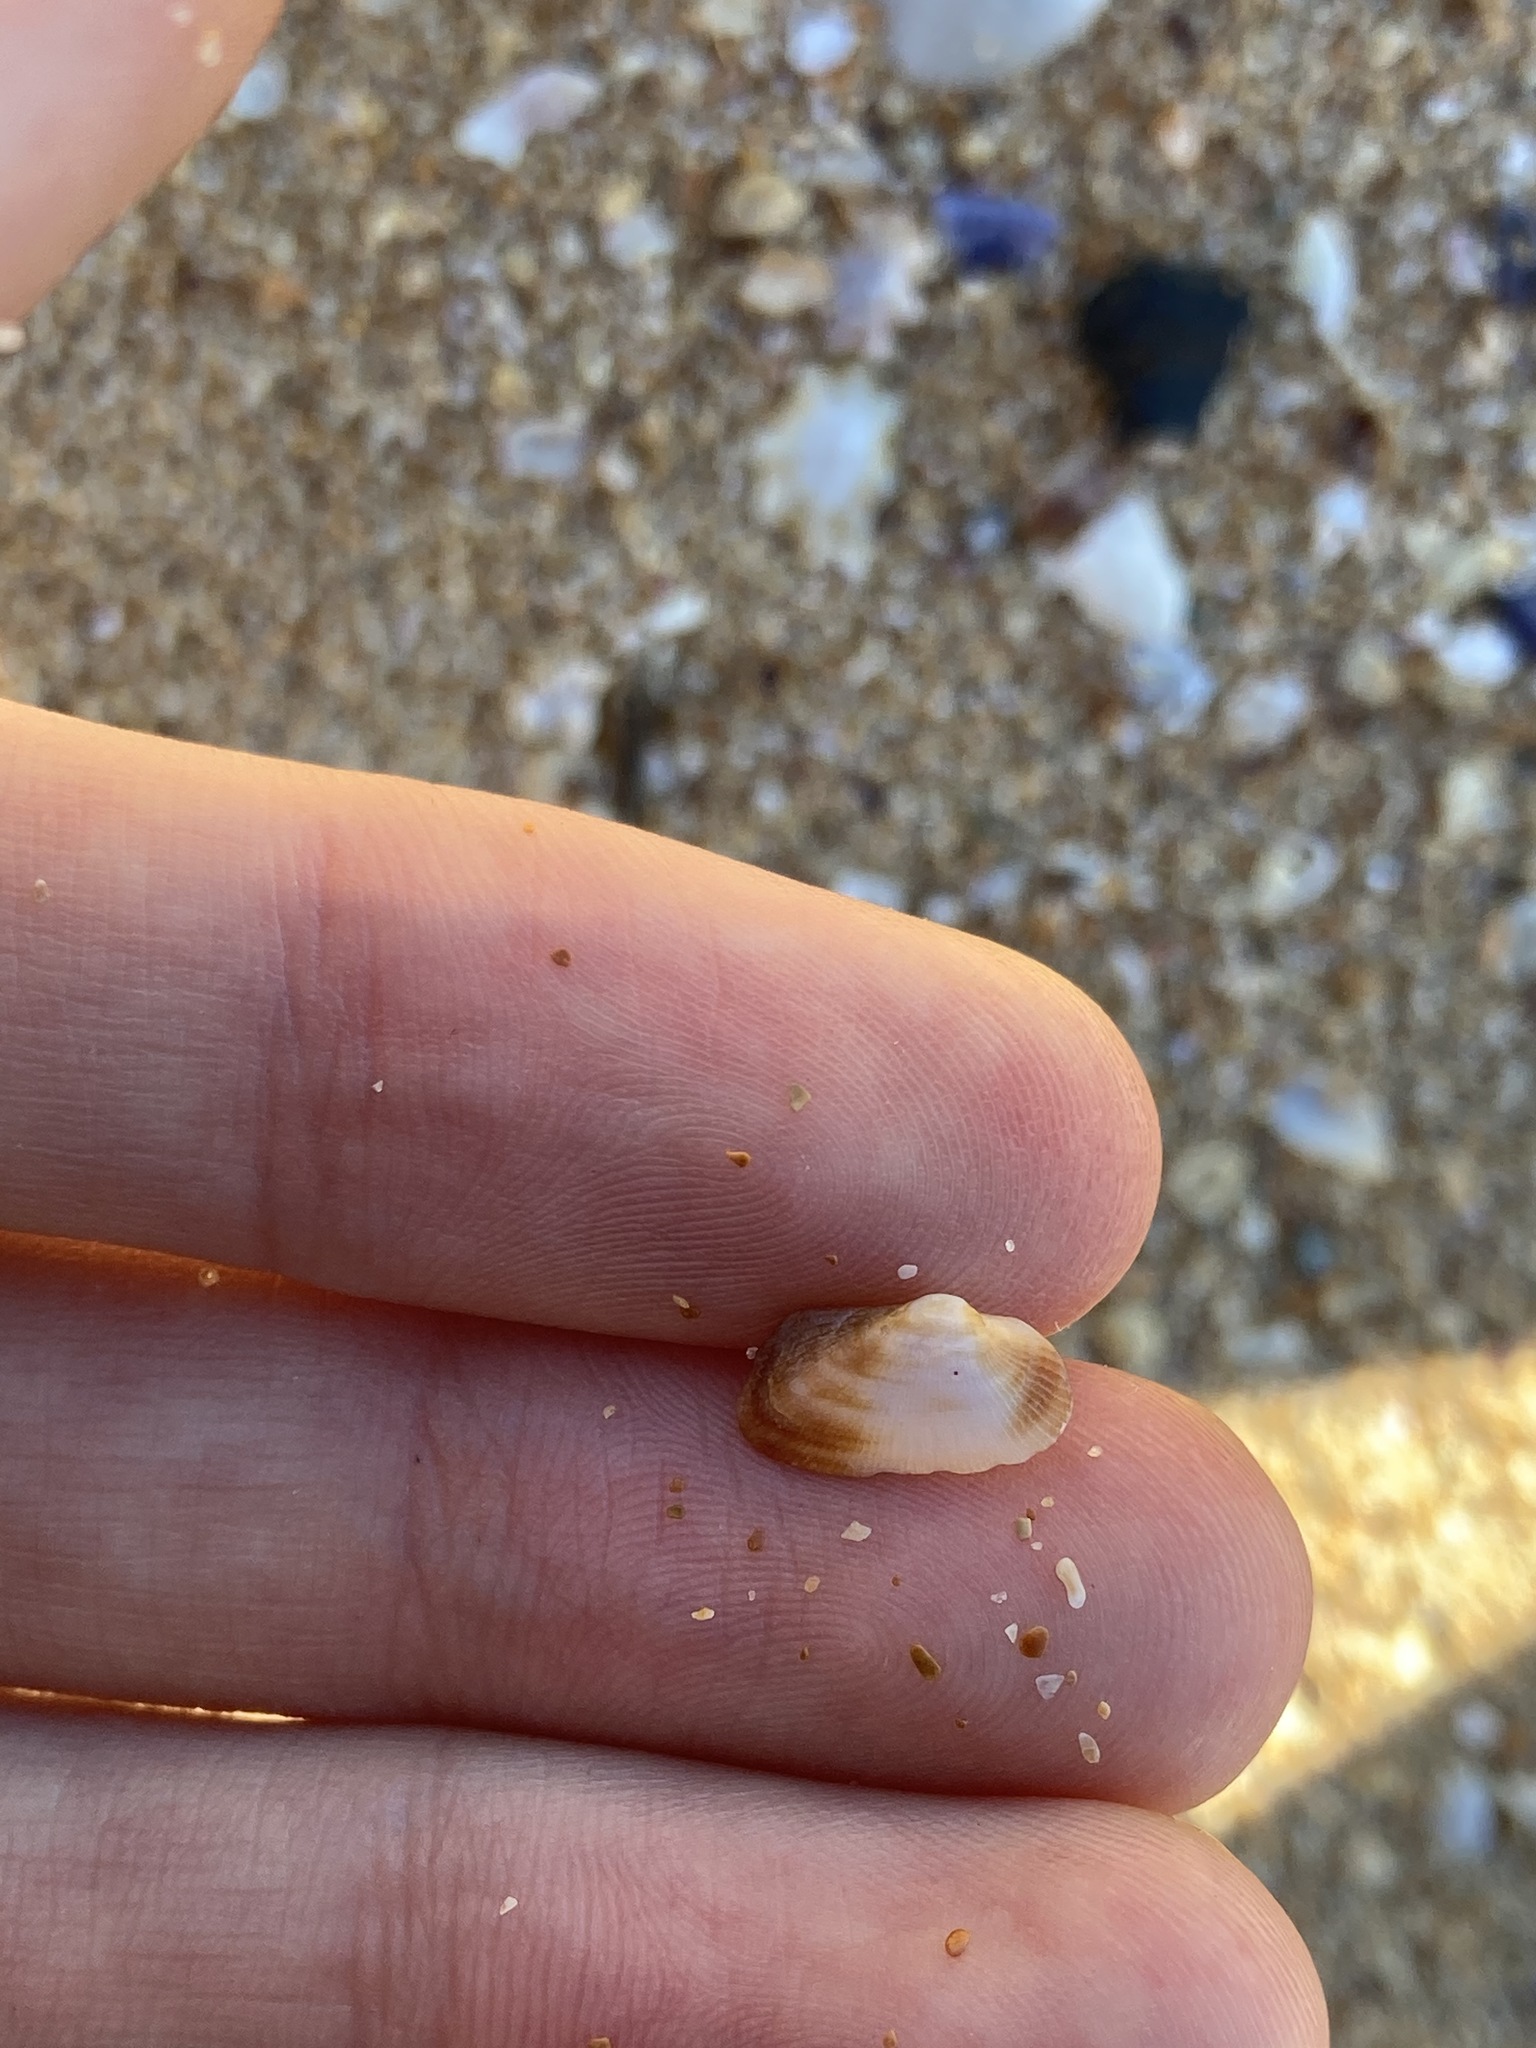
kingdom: Animalia
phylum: Mollusca
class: Bivalvia
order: Arcida
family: Arcidae
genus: Barbatia
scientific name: Barbatia pistachia
